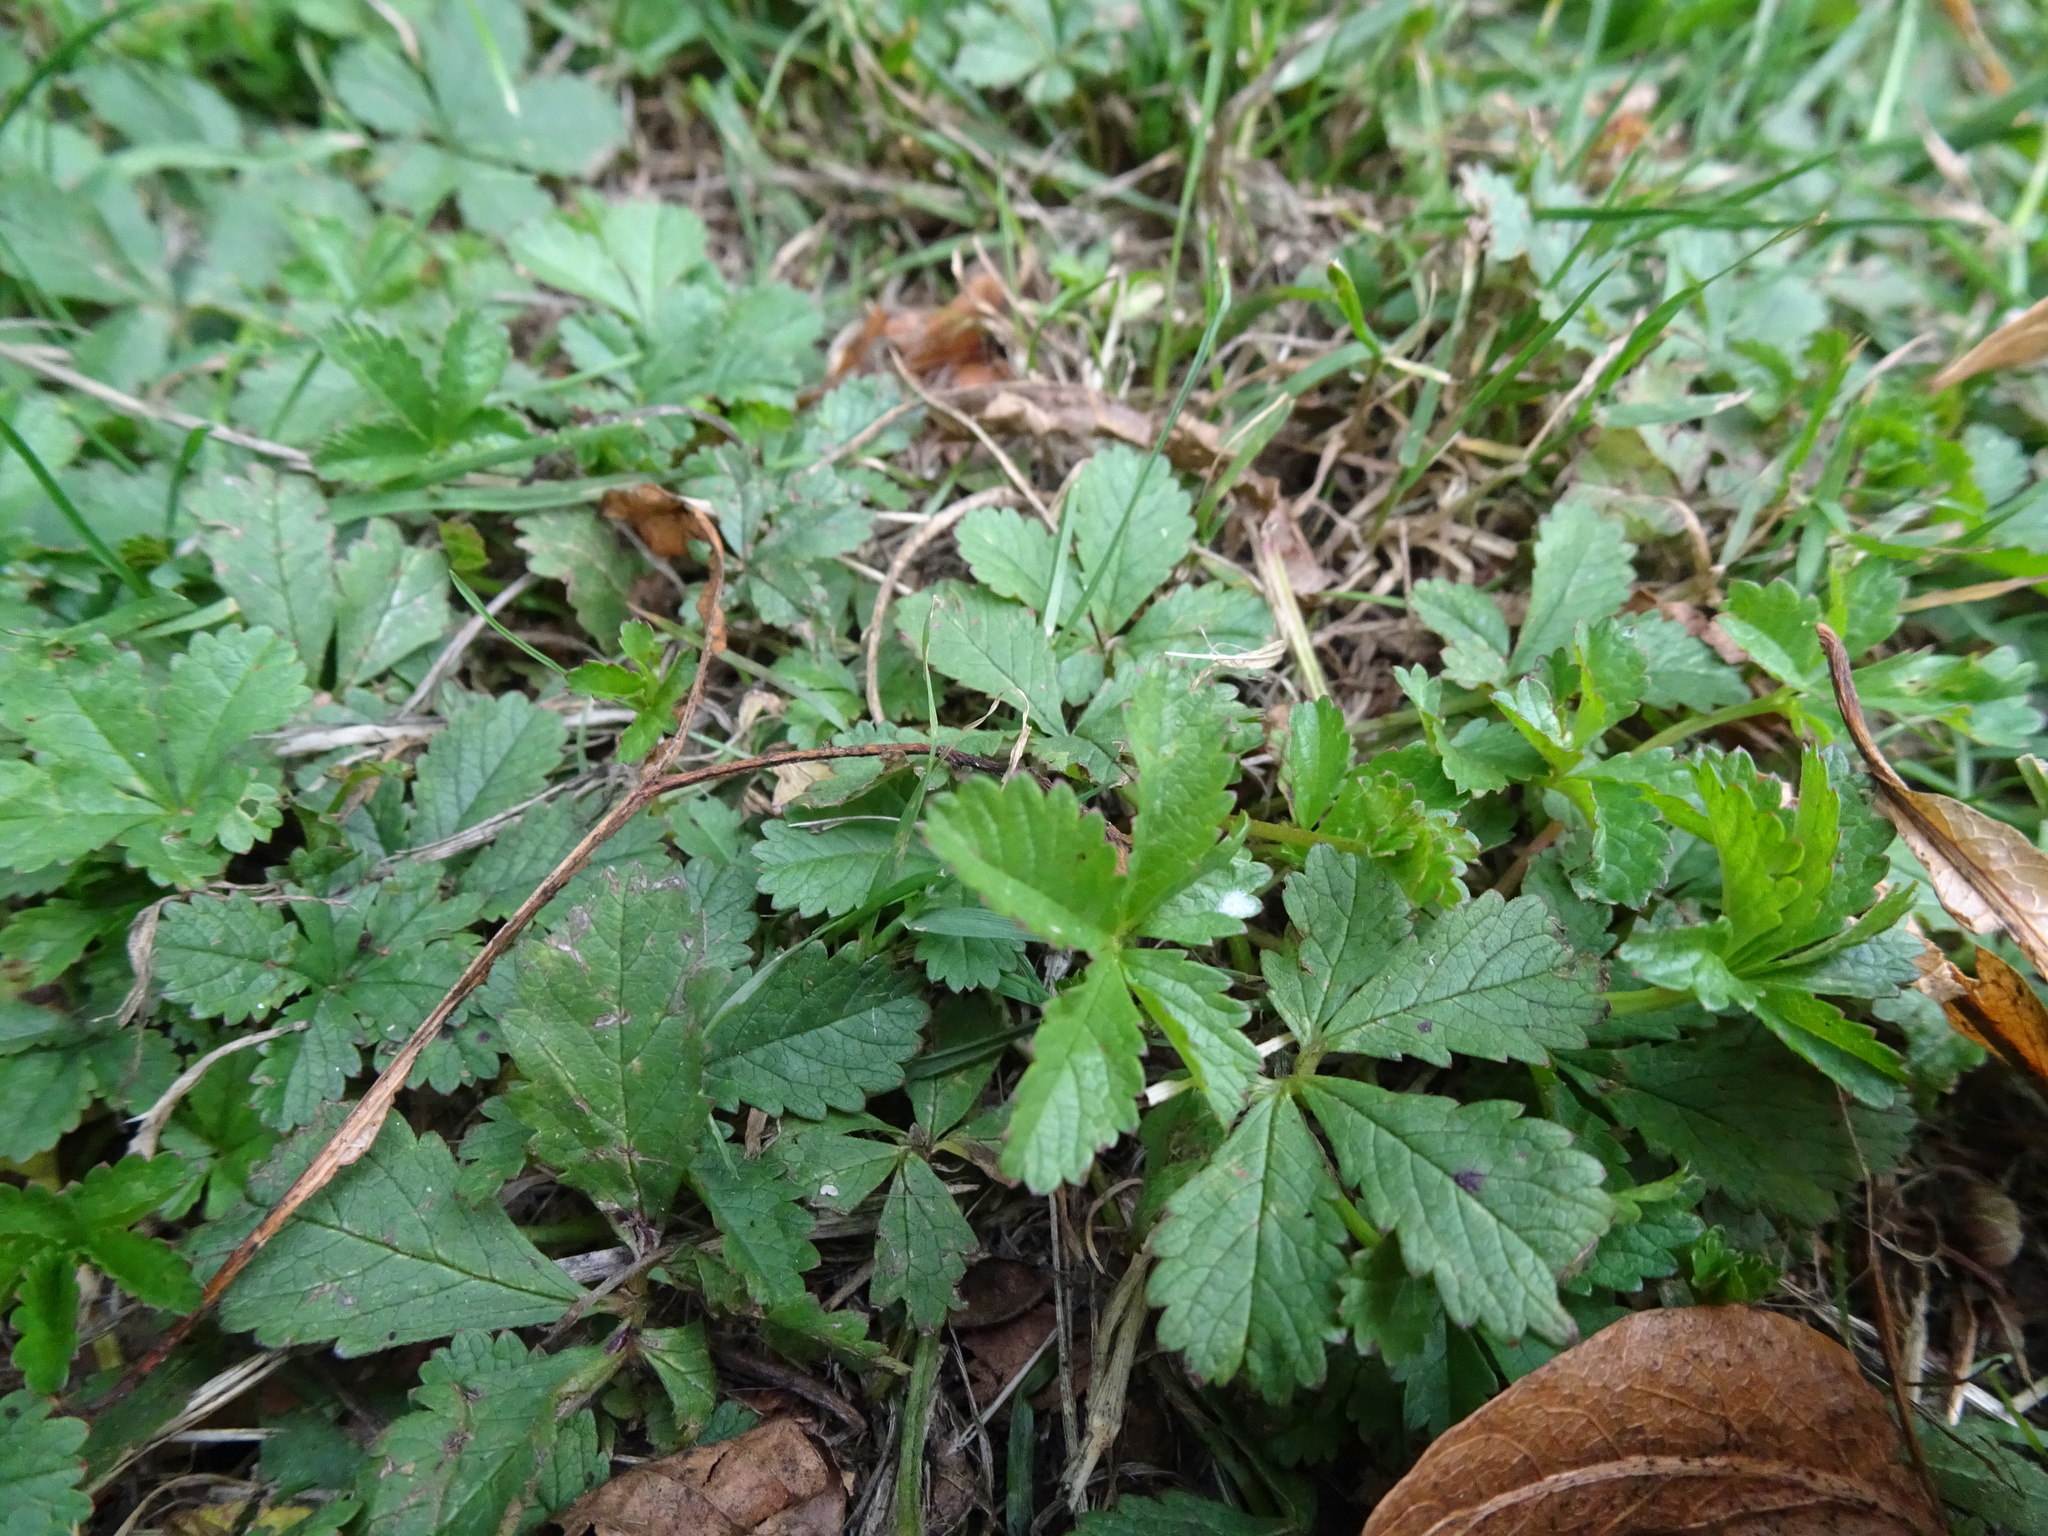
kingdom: Plantae
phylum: Tracheophyta
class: Magnoliopsida
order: Rosales
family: Rosaceae
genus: Potentilla
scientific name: Potentilla reptans
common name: Creeping cinquefoil
